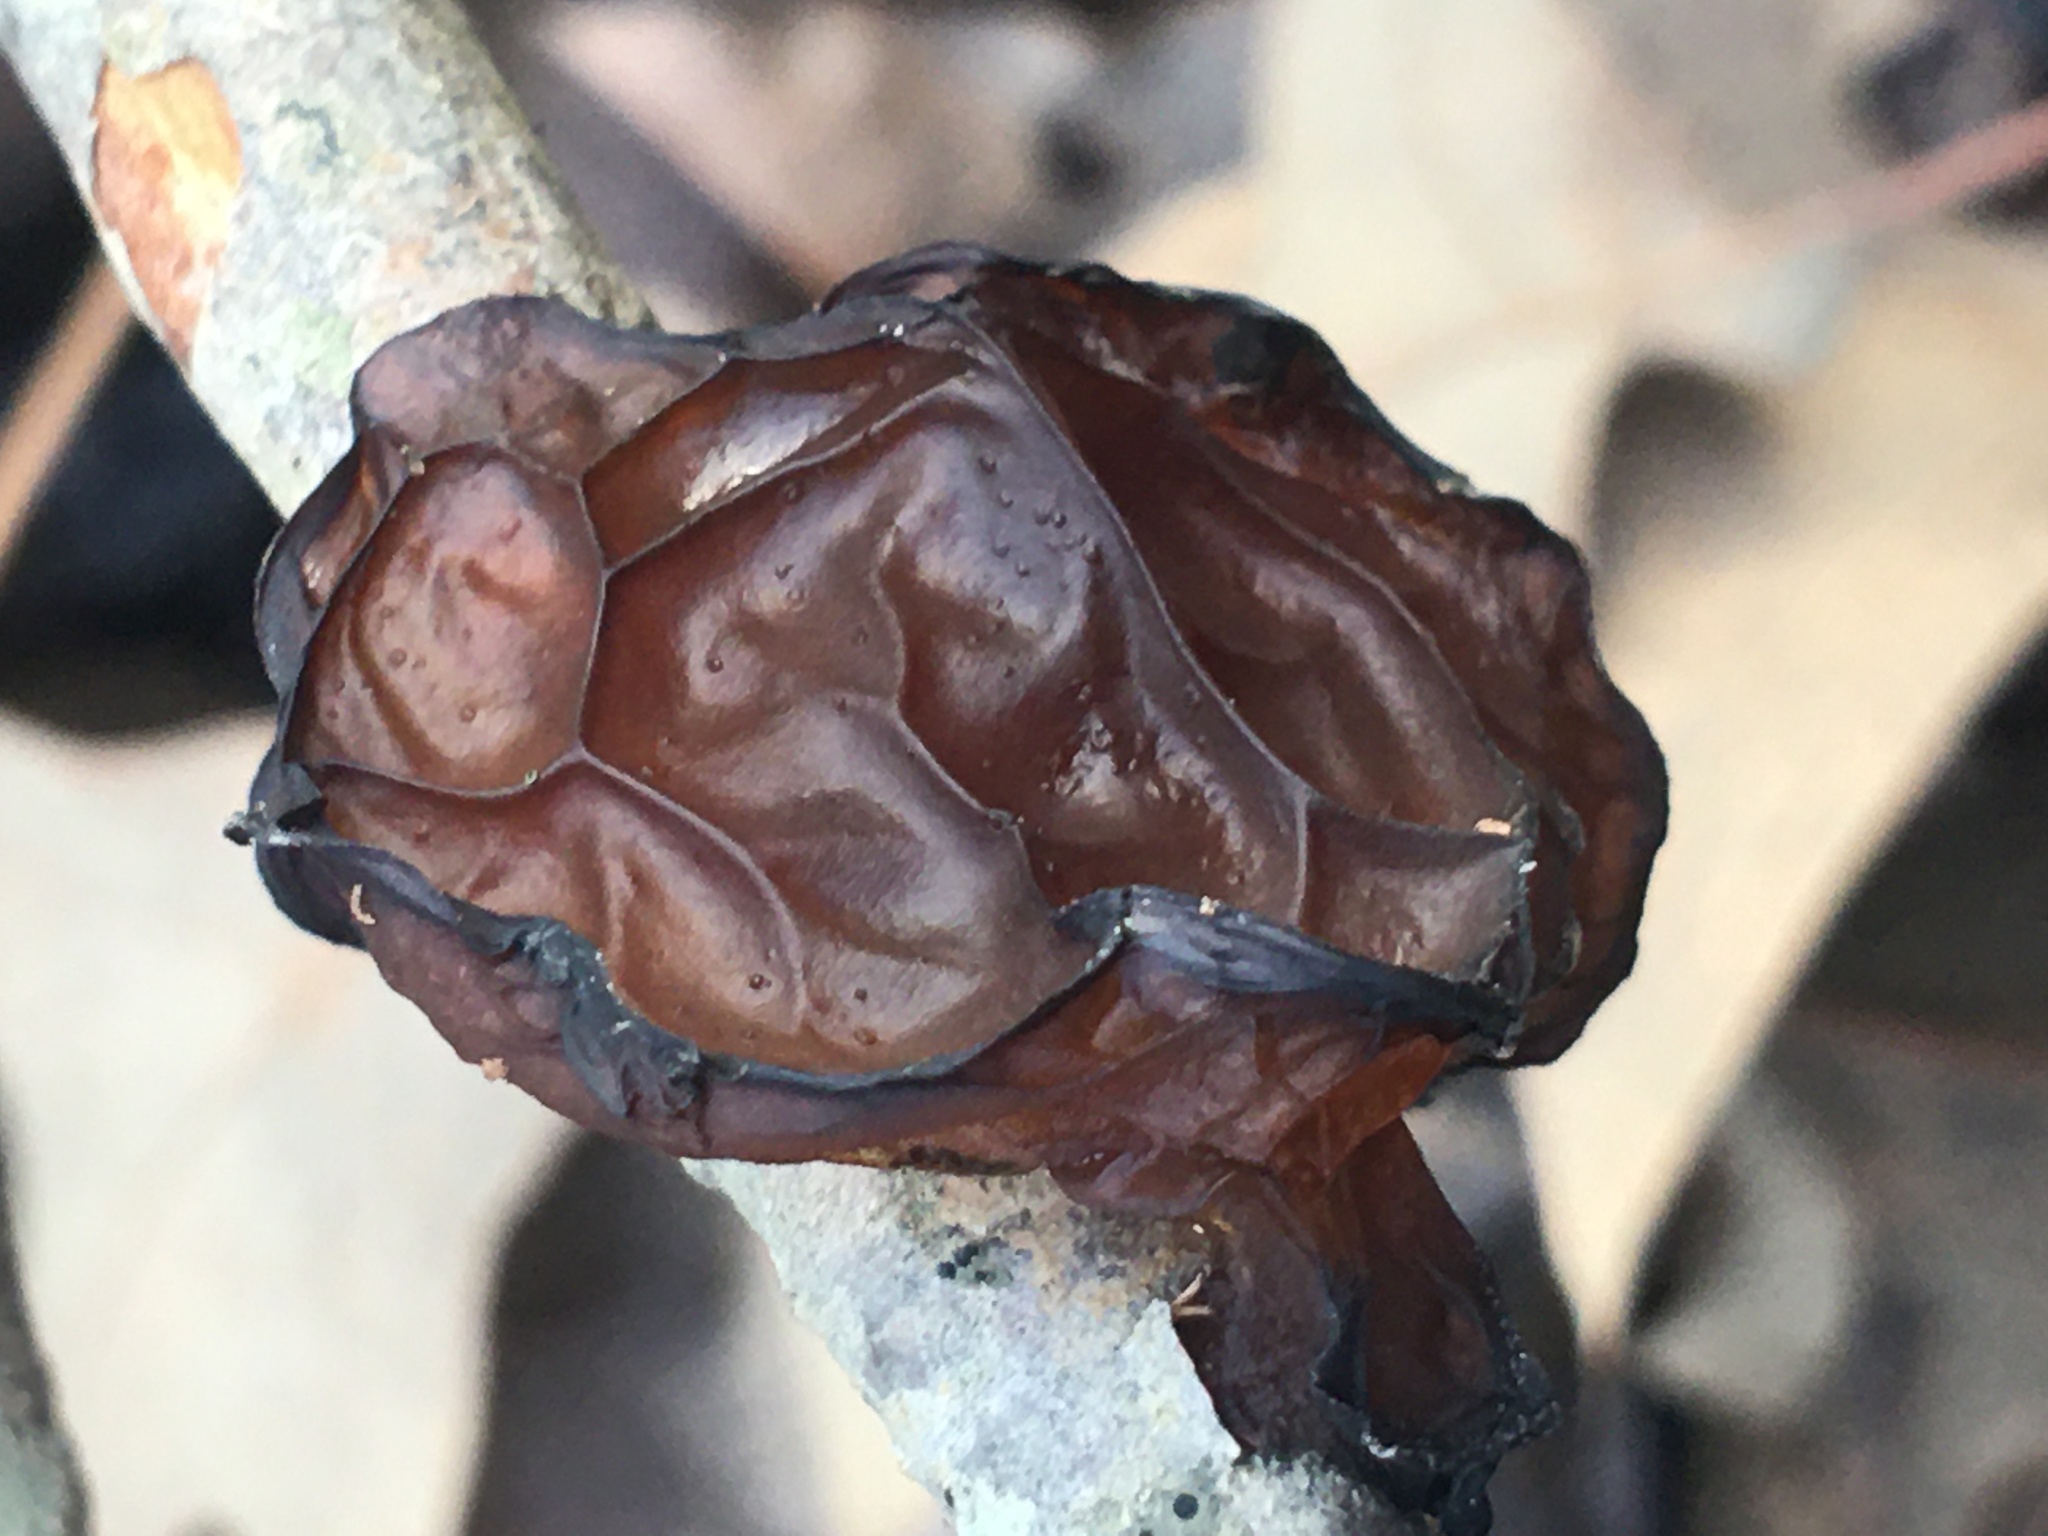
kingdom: Fungi
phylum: Basidiomycota
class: Agaricomycetes
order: Auriculariales
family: Auriculariaceae
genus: Exidia
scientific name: Exidia
